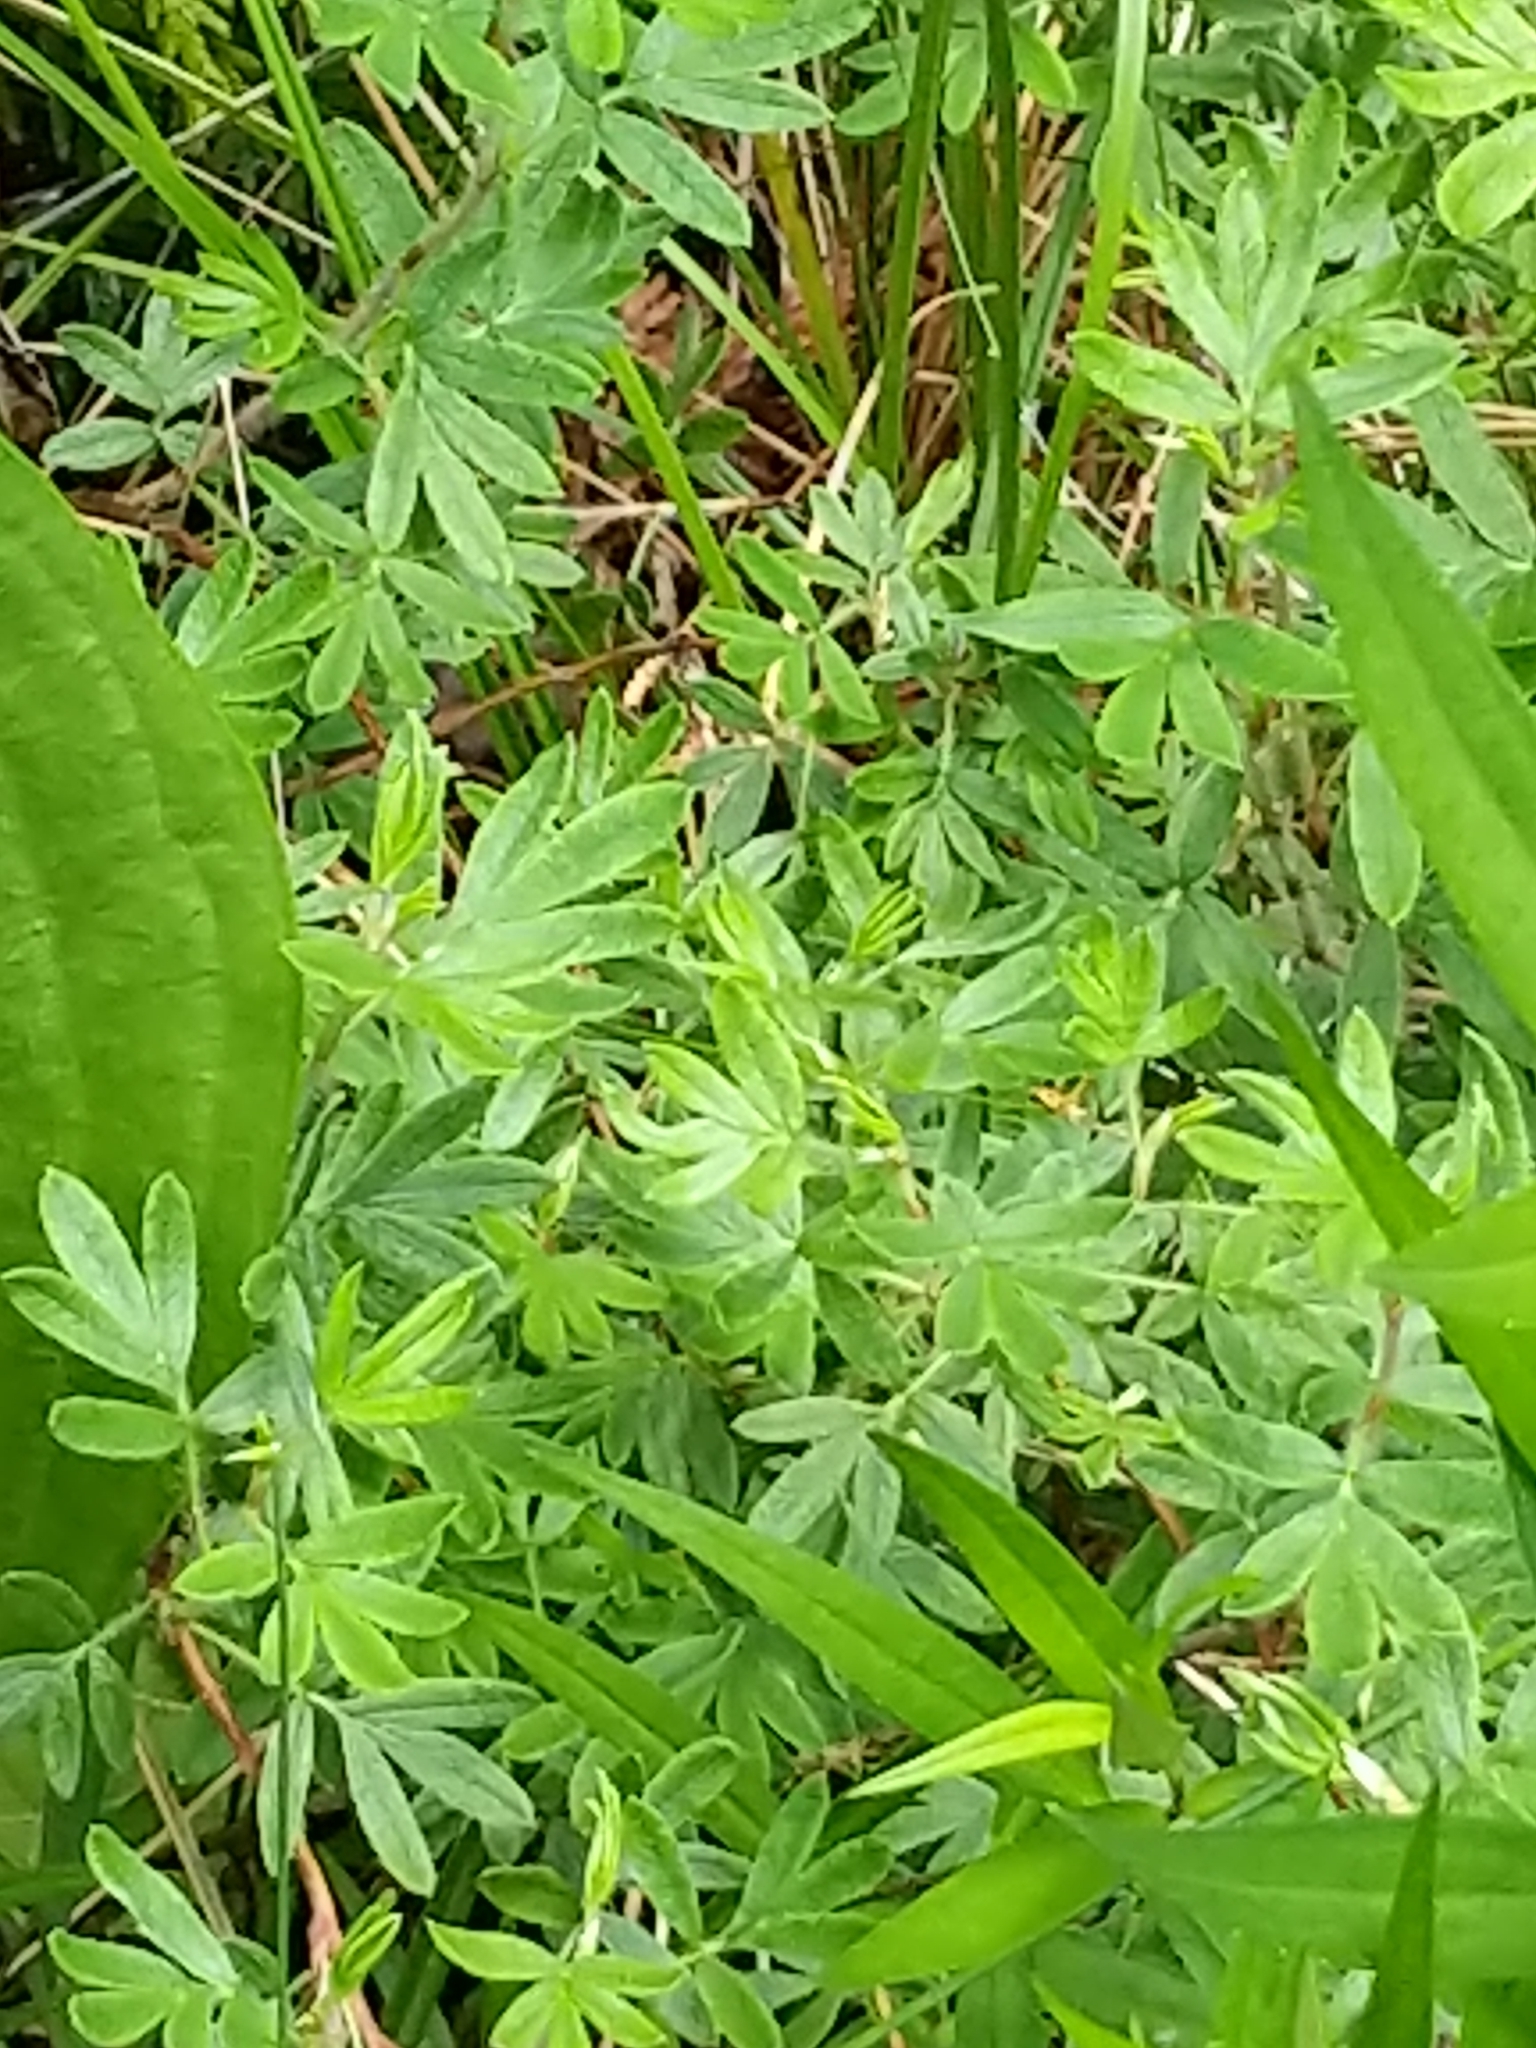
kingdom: Plantae
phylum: Tracheophyta
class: Magnoliopsida
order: Rosales
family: Rosaceae
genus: Dasiphora
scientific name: Dasiphora fruticosa
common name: Shrubby cinquefoil
